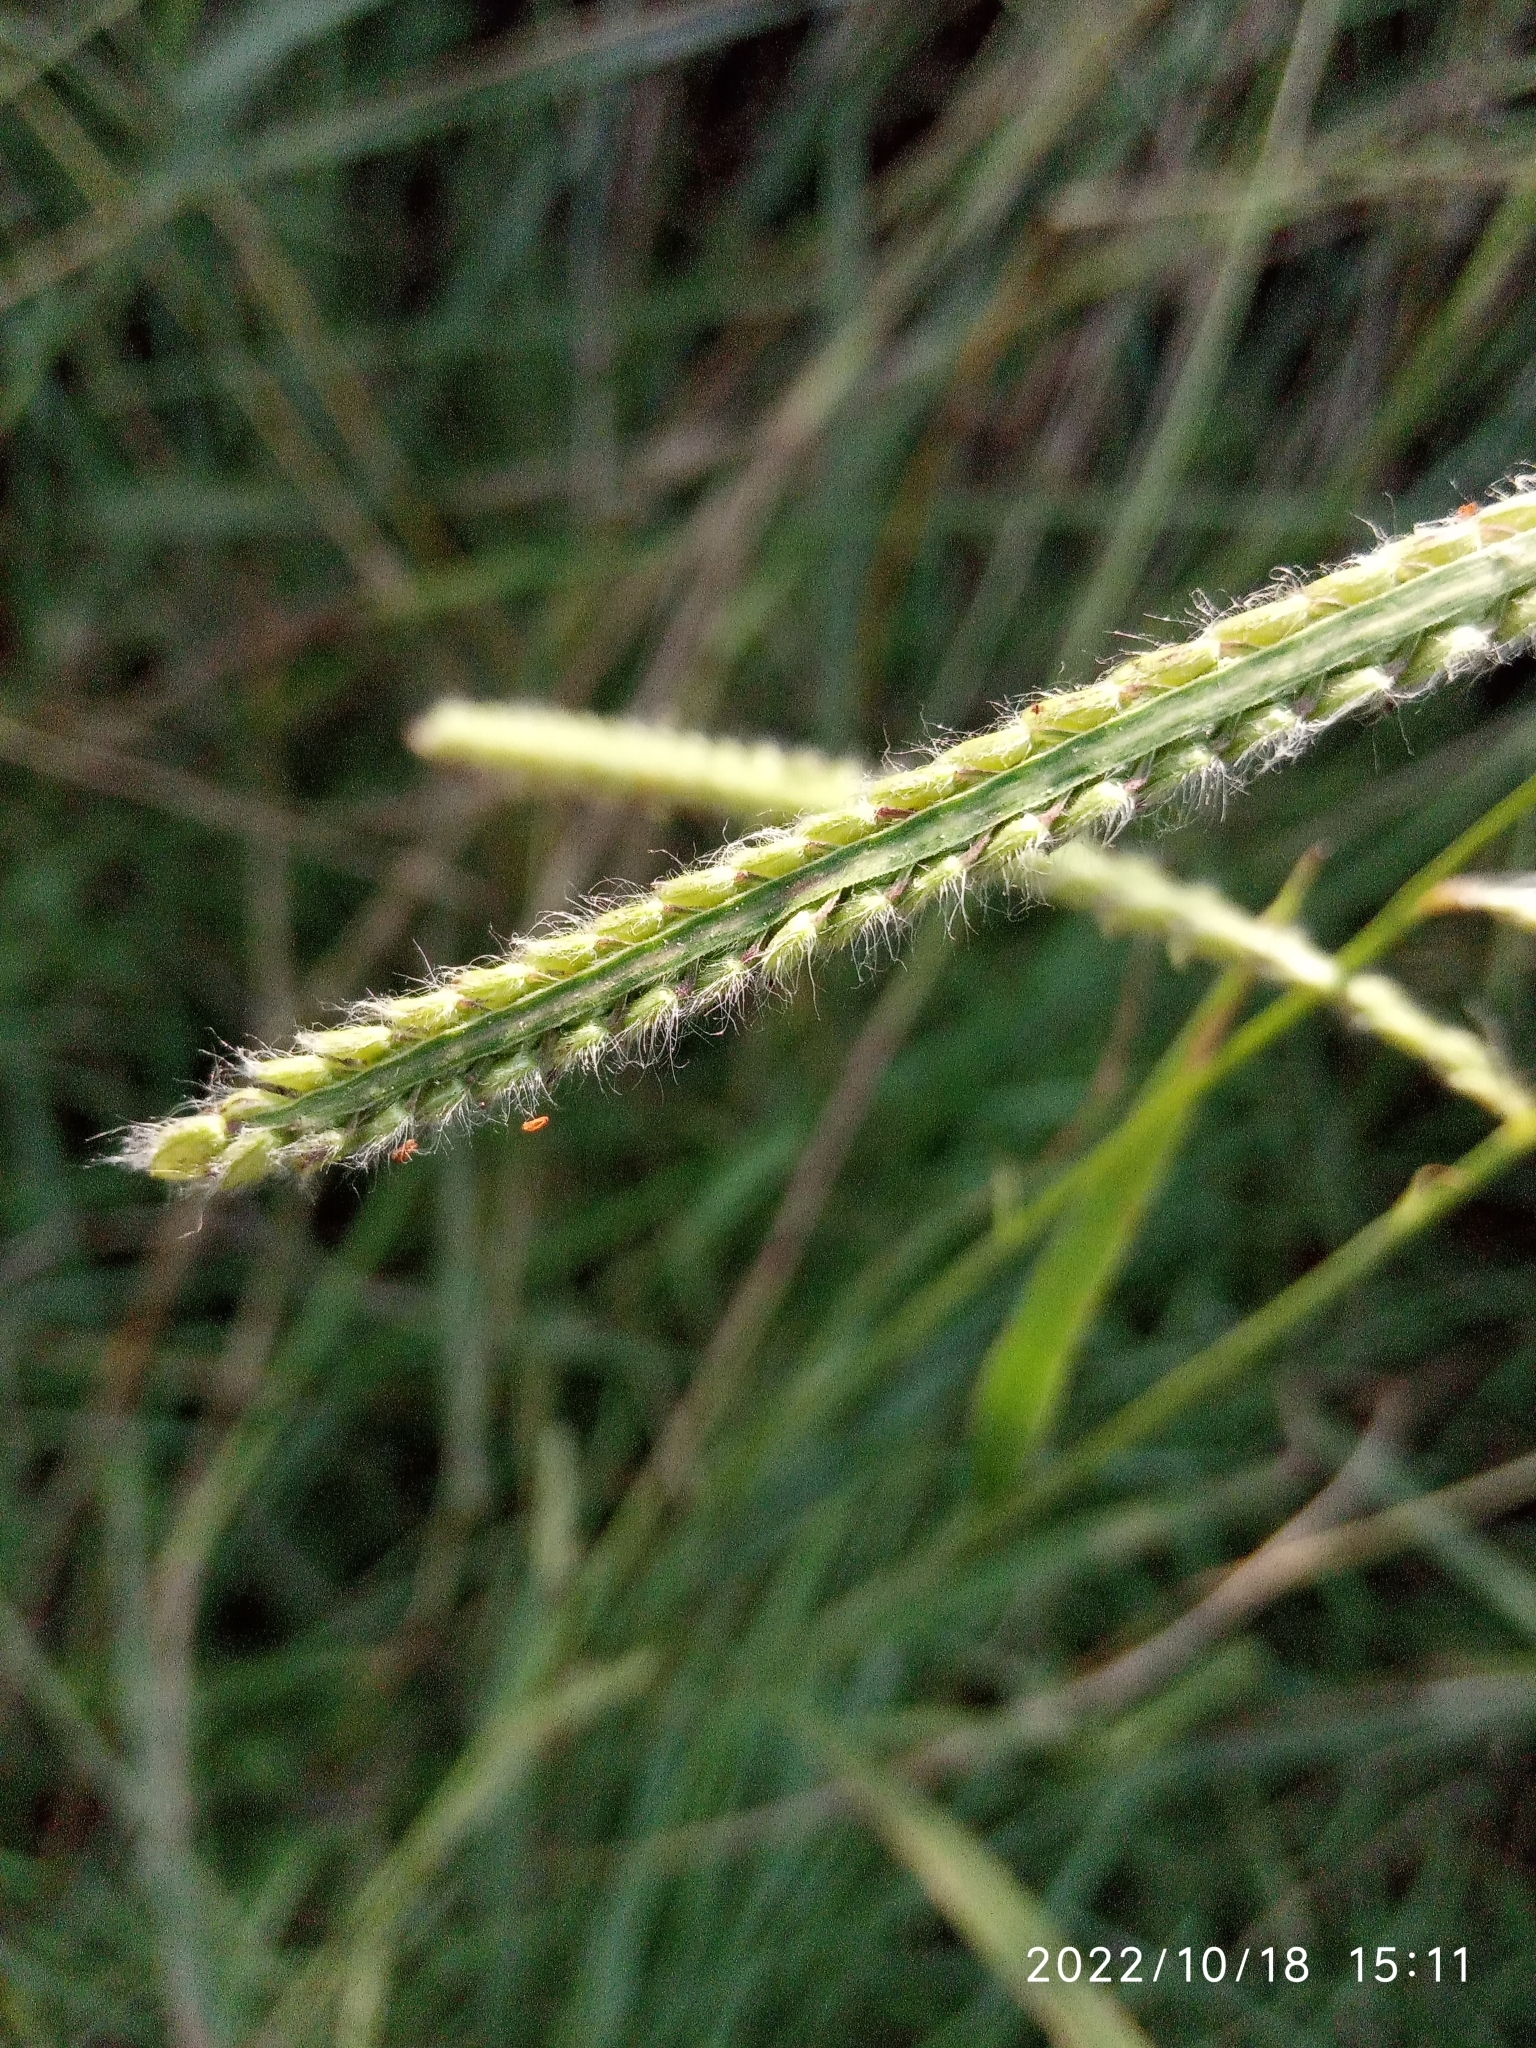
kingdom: Plantae
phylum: Tracheophyta
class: Liliopsida
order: Poales
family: Poaceae
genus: Paspalum
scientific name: Paspalum dilatatum
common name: Dallisgrass
